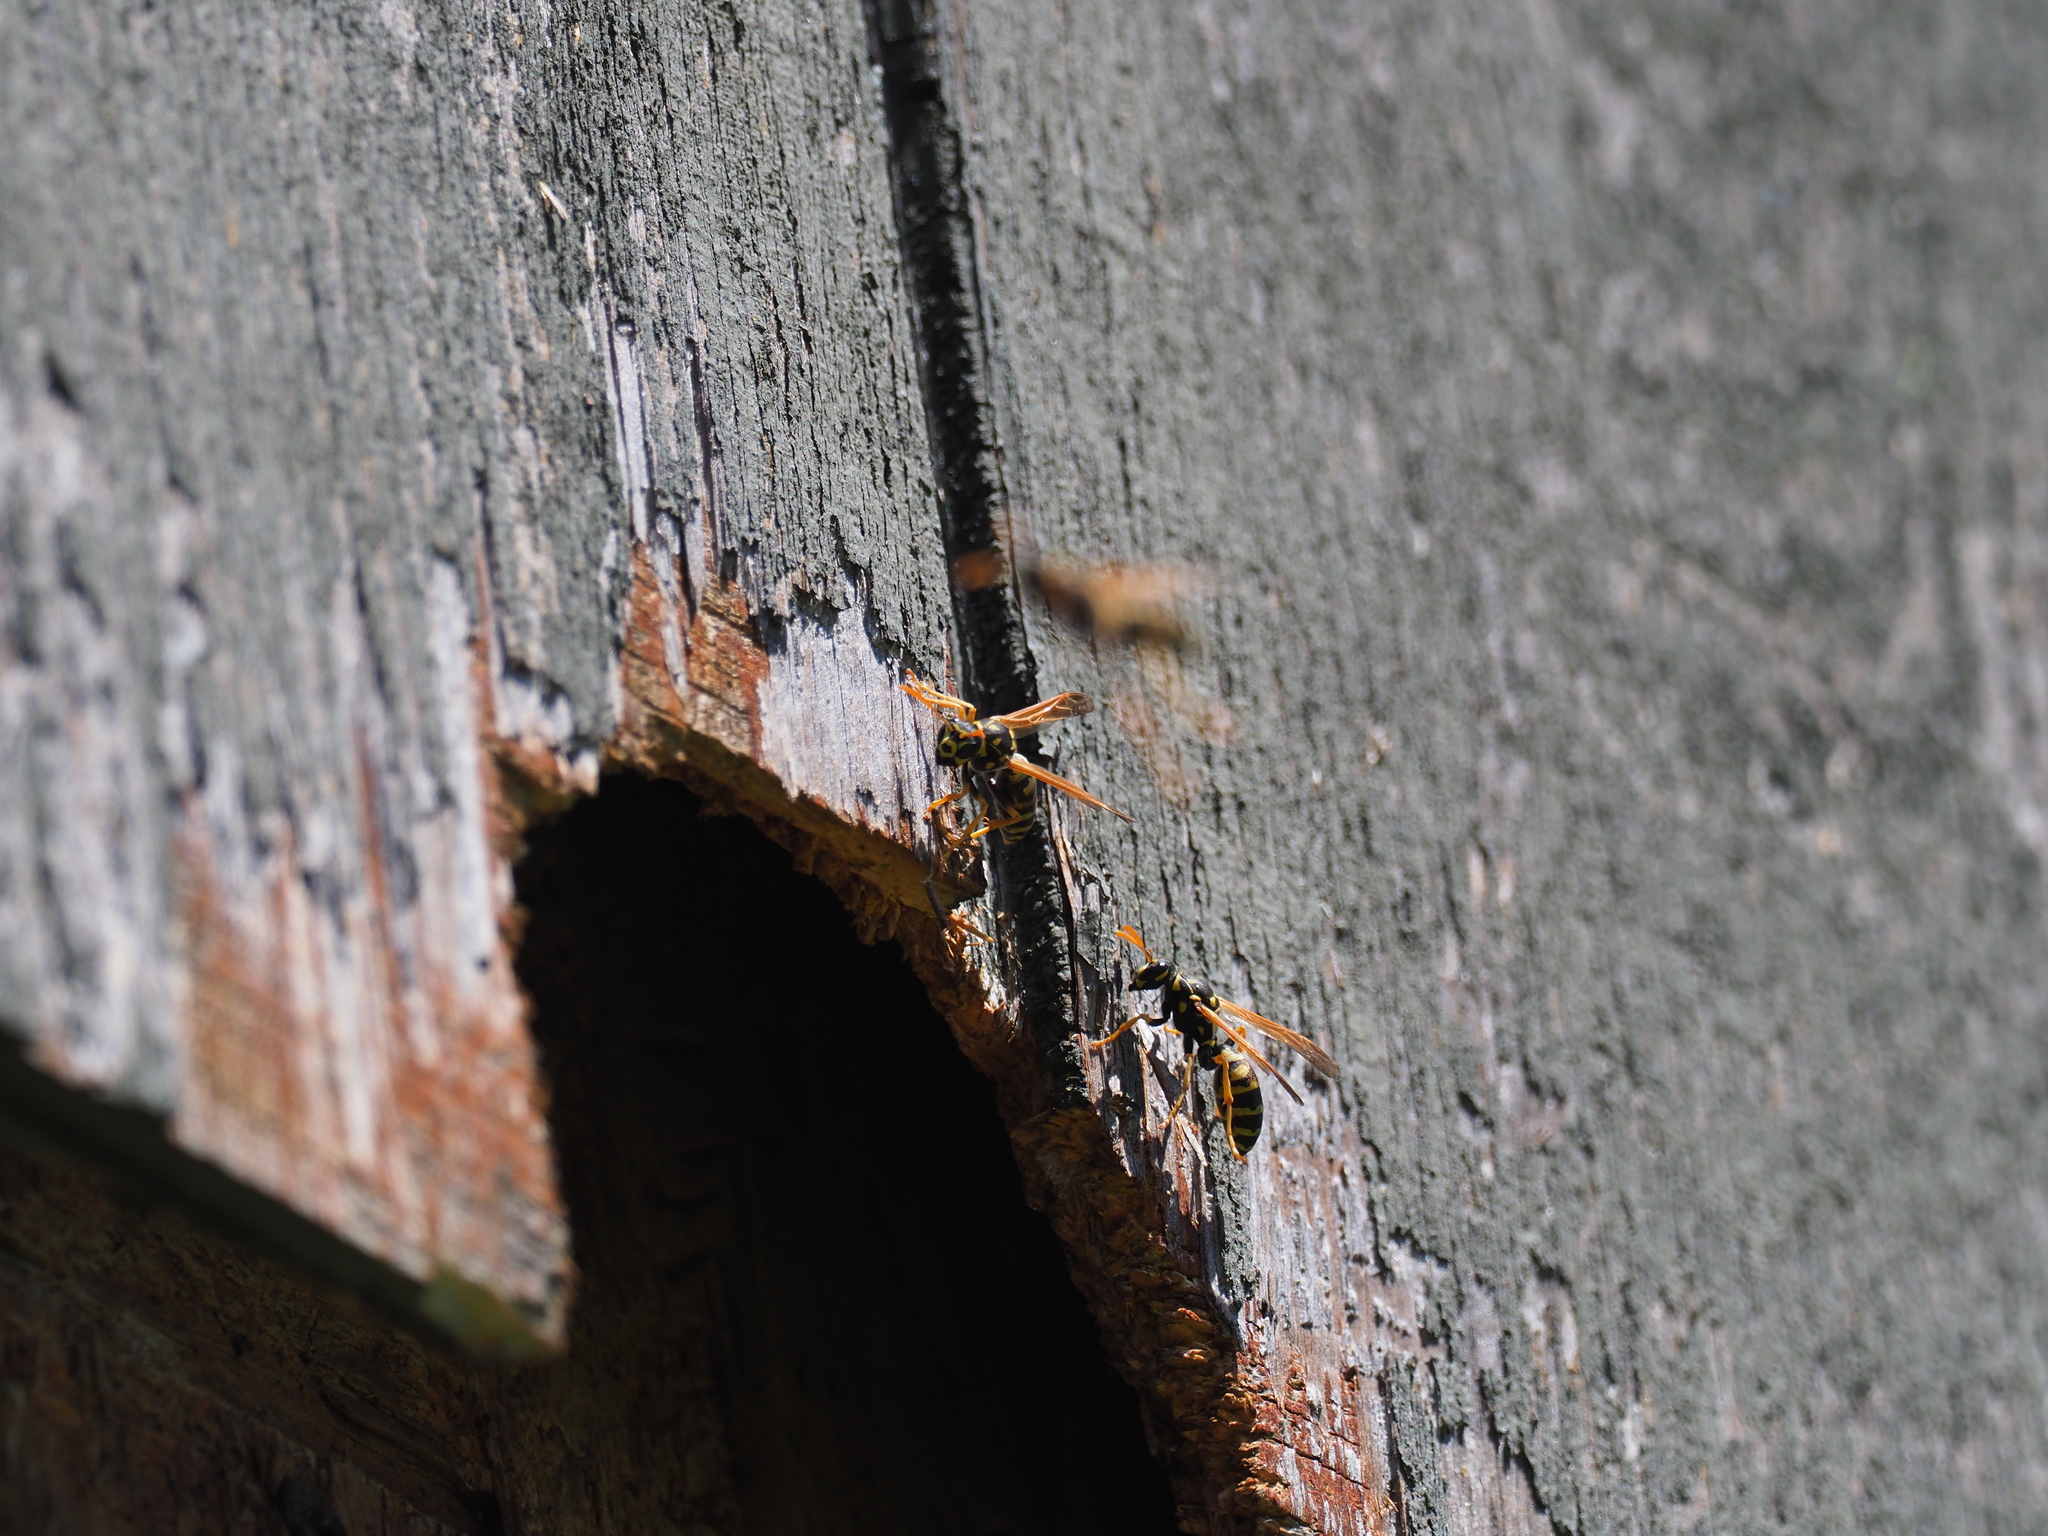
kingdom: Animalia
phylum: Arthropoda
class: Insecta
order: Hymenoptera
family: Eumenidae
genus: Polistes
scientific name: Polistes dominula
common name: Paper wasp
